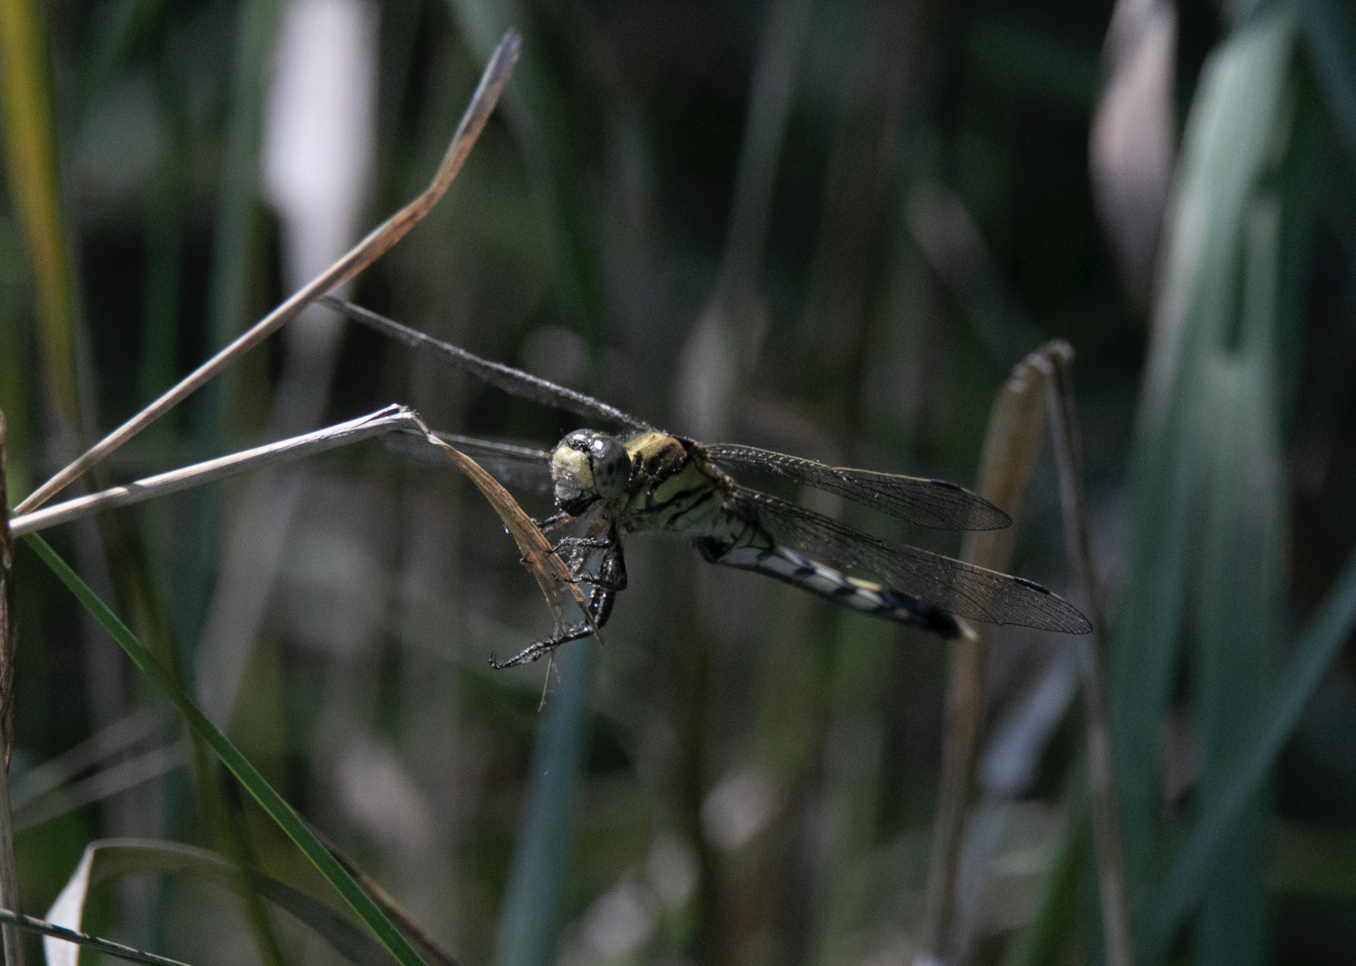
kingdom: Animalia
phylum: Arthropoda
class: Insecta
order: Odonata
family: Libellulidae
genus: Orthetrum
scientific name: Orthetrum albistylum
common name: White-tailed skimmer
